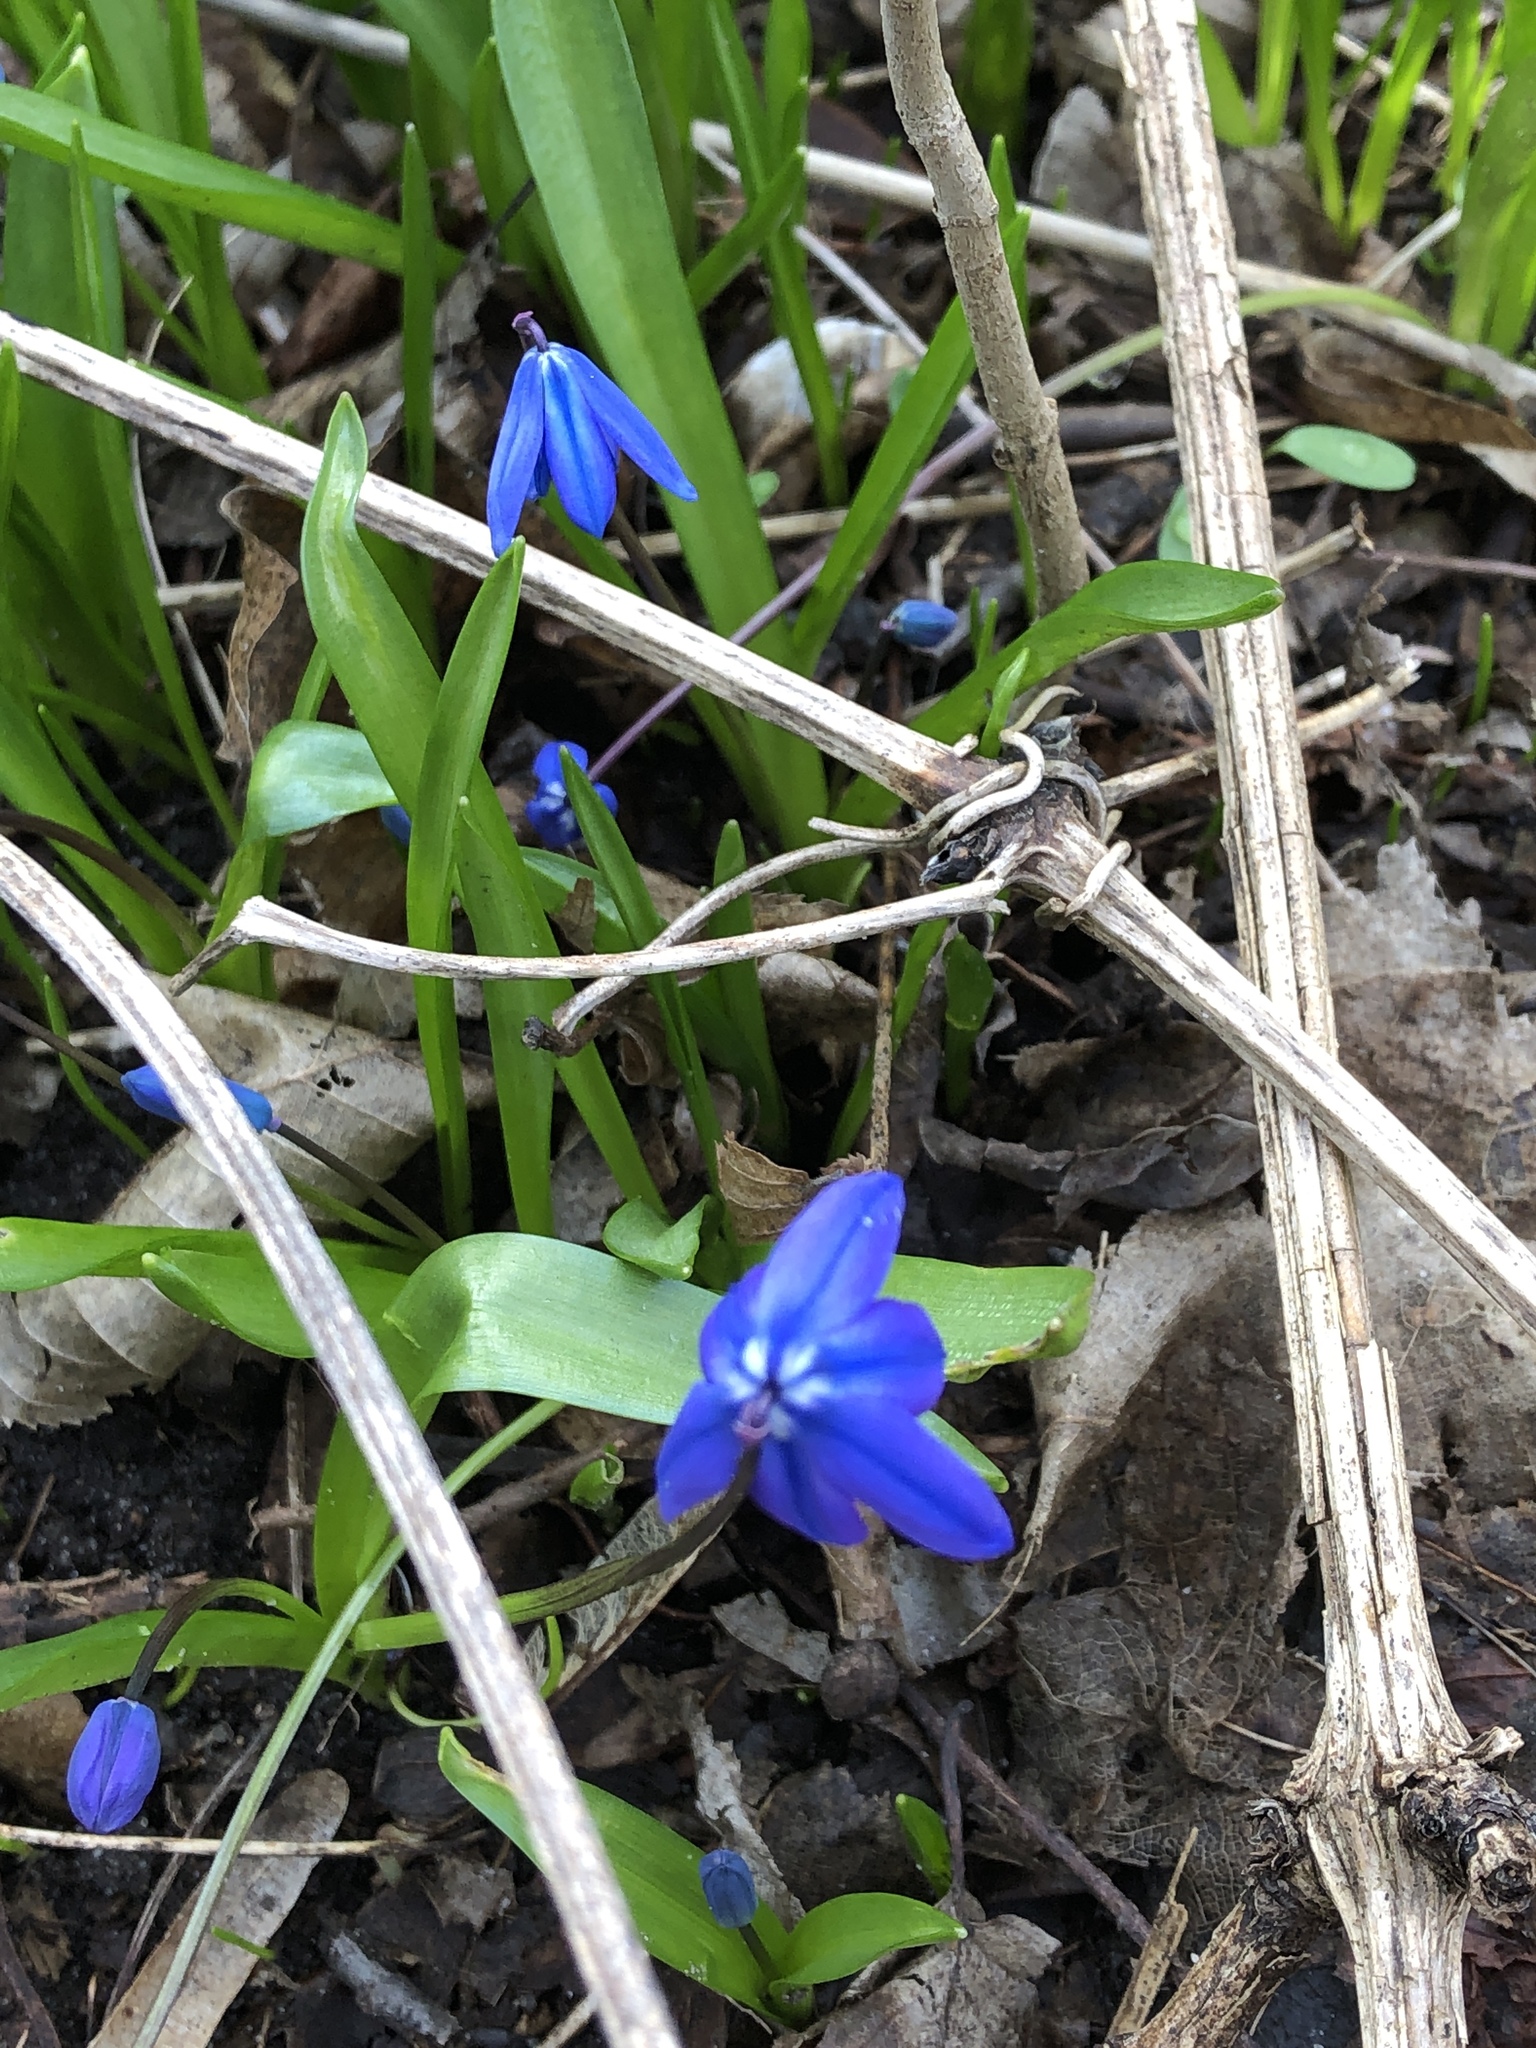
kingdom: Plantae
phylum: Tracheophyta
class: Liliopsida
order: Asparagales
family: Asparagaceae
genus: Scilla
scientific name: Scilla siberica
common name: Siberian squill
